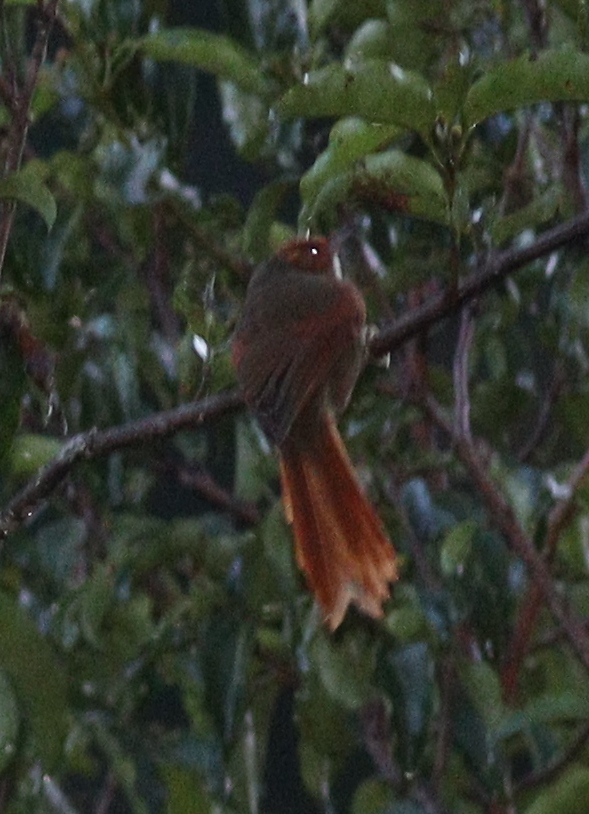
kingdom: Animalia
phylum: Chordata
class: Aves
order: Passeriformes
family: Furnariidae
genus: Cranioleuca
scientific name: Cranioleuca erythrops
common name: Red-faced spinetail
